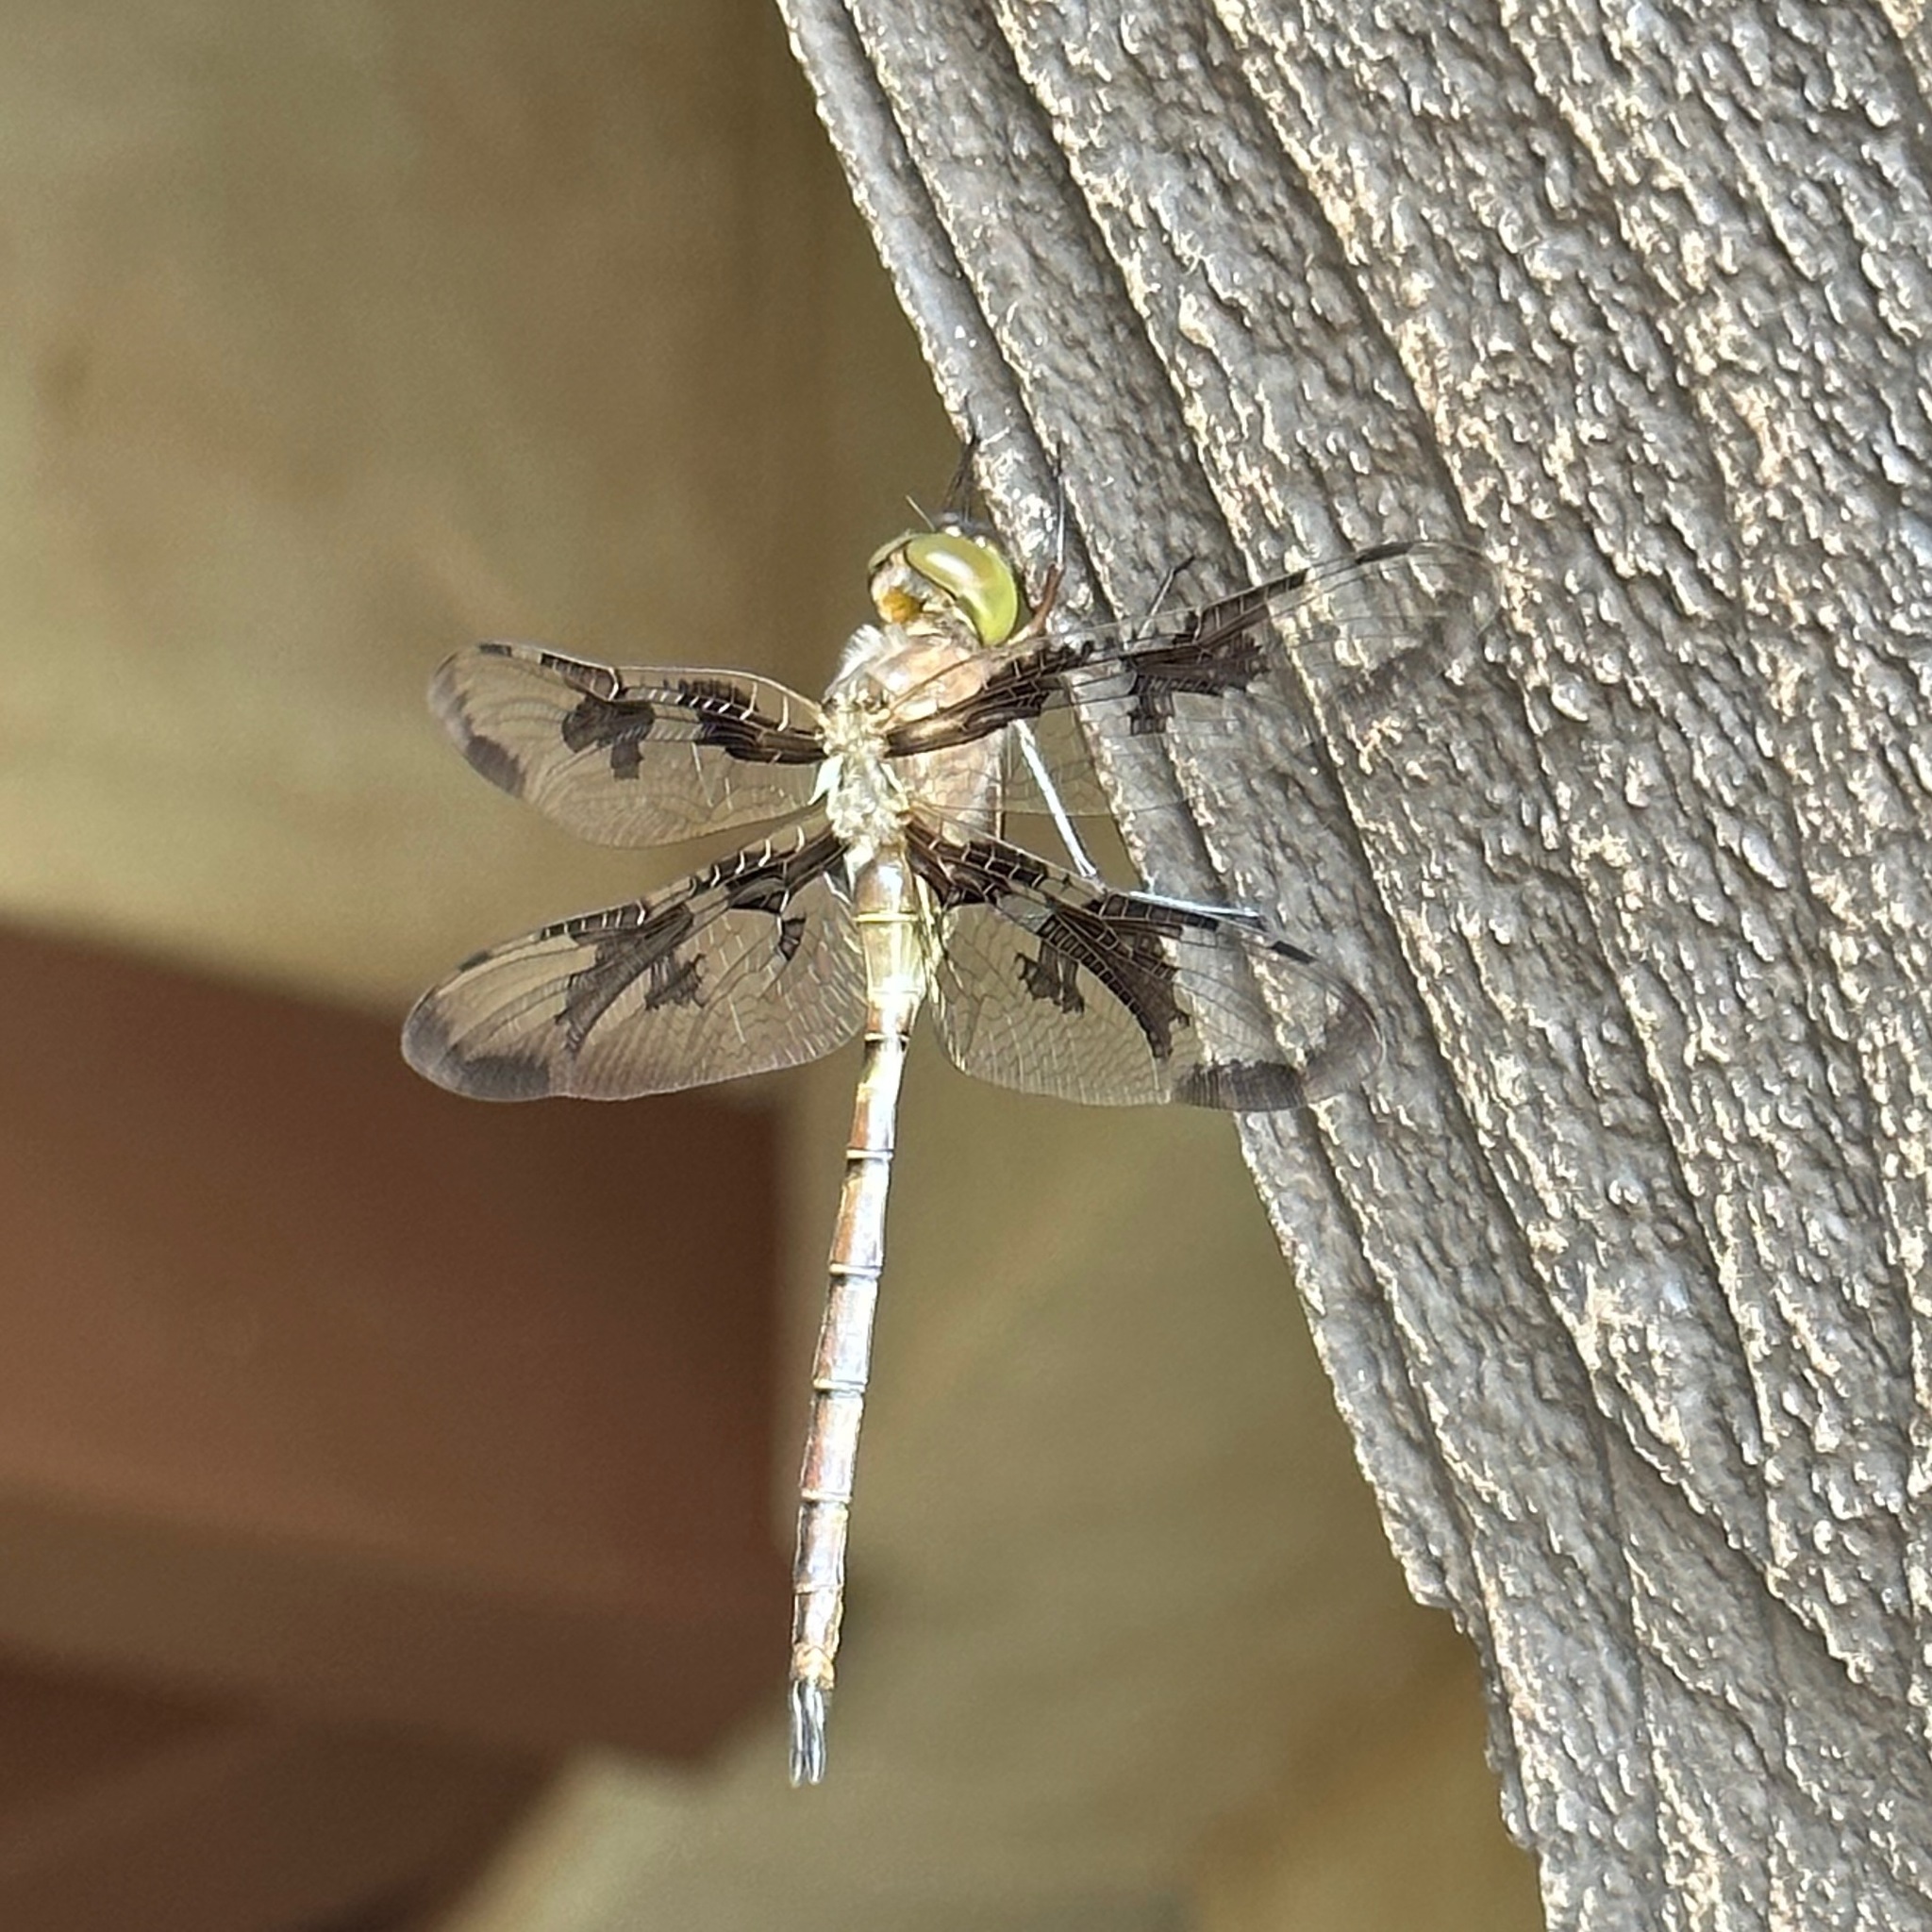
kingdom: Animalia
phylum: Arthropoda
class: Insecta
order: Odonata
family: Corduliidae
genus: Epitheca
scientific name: Epitheca princeps
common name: Prince baskettail
